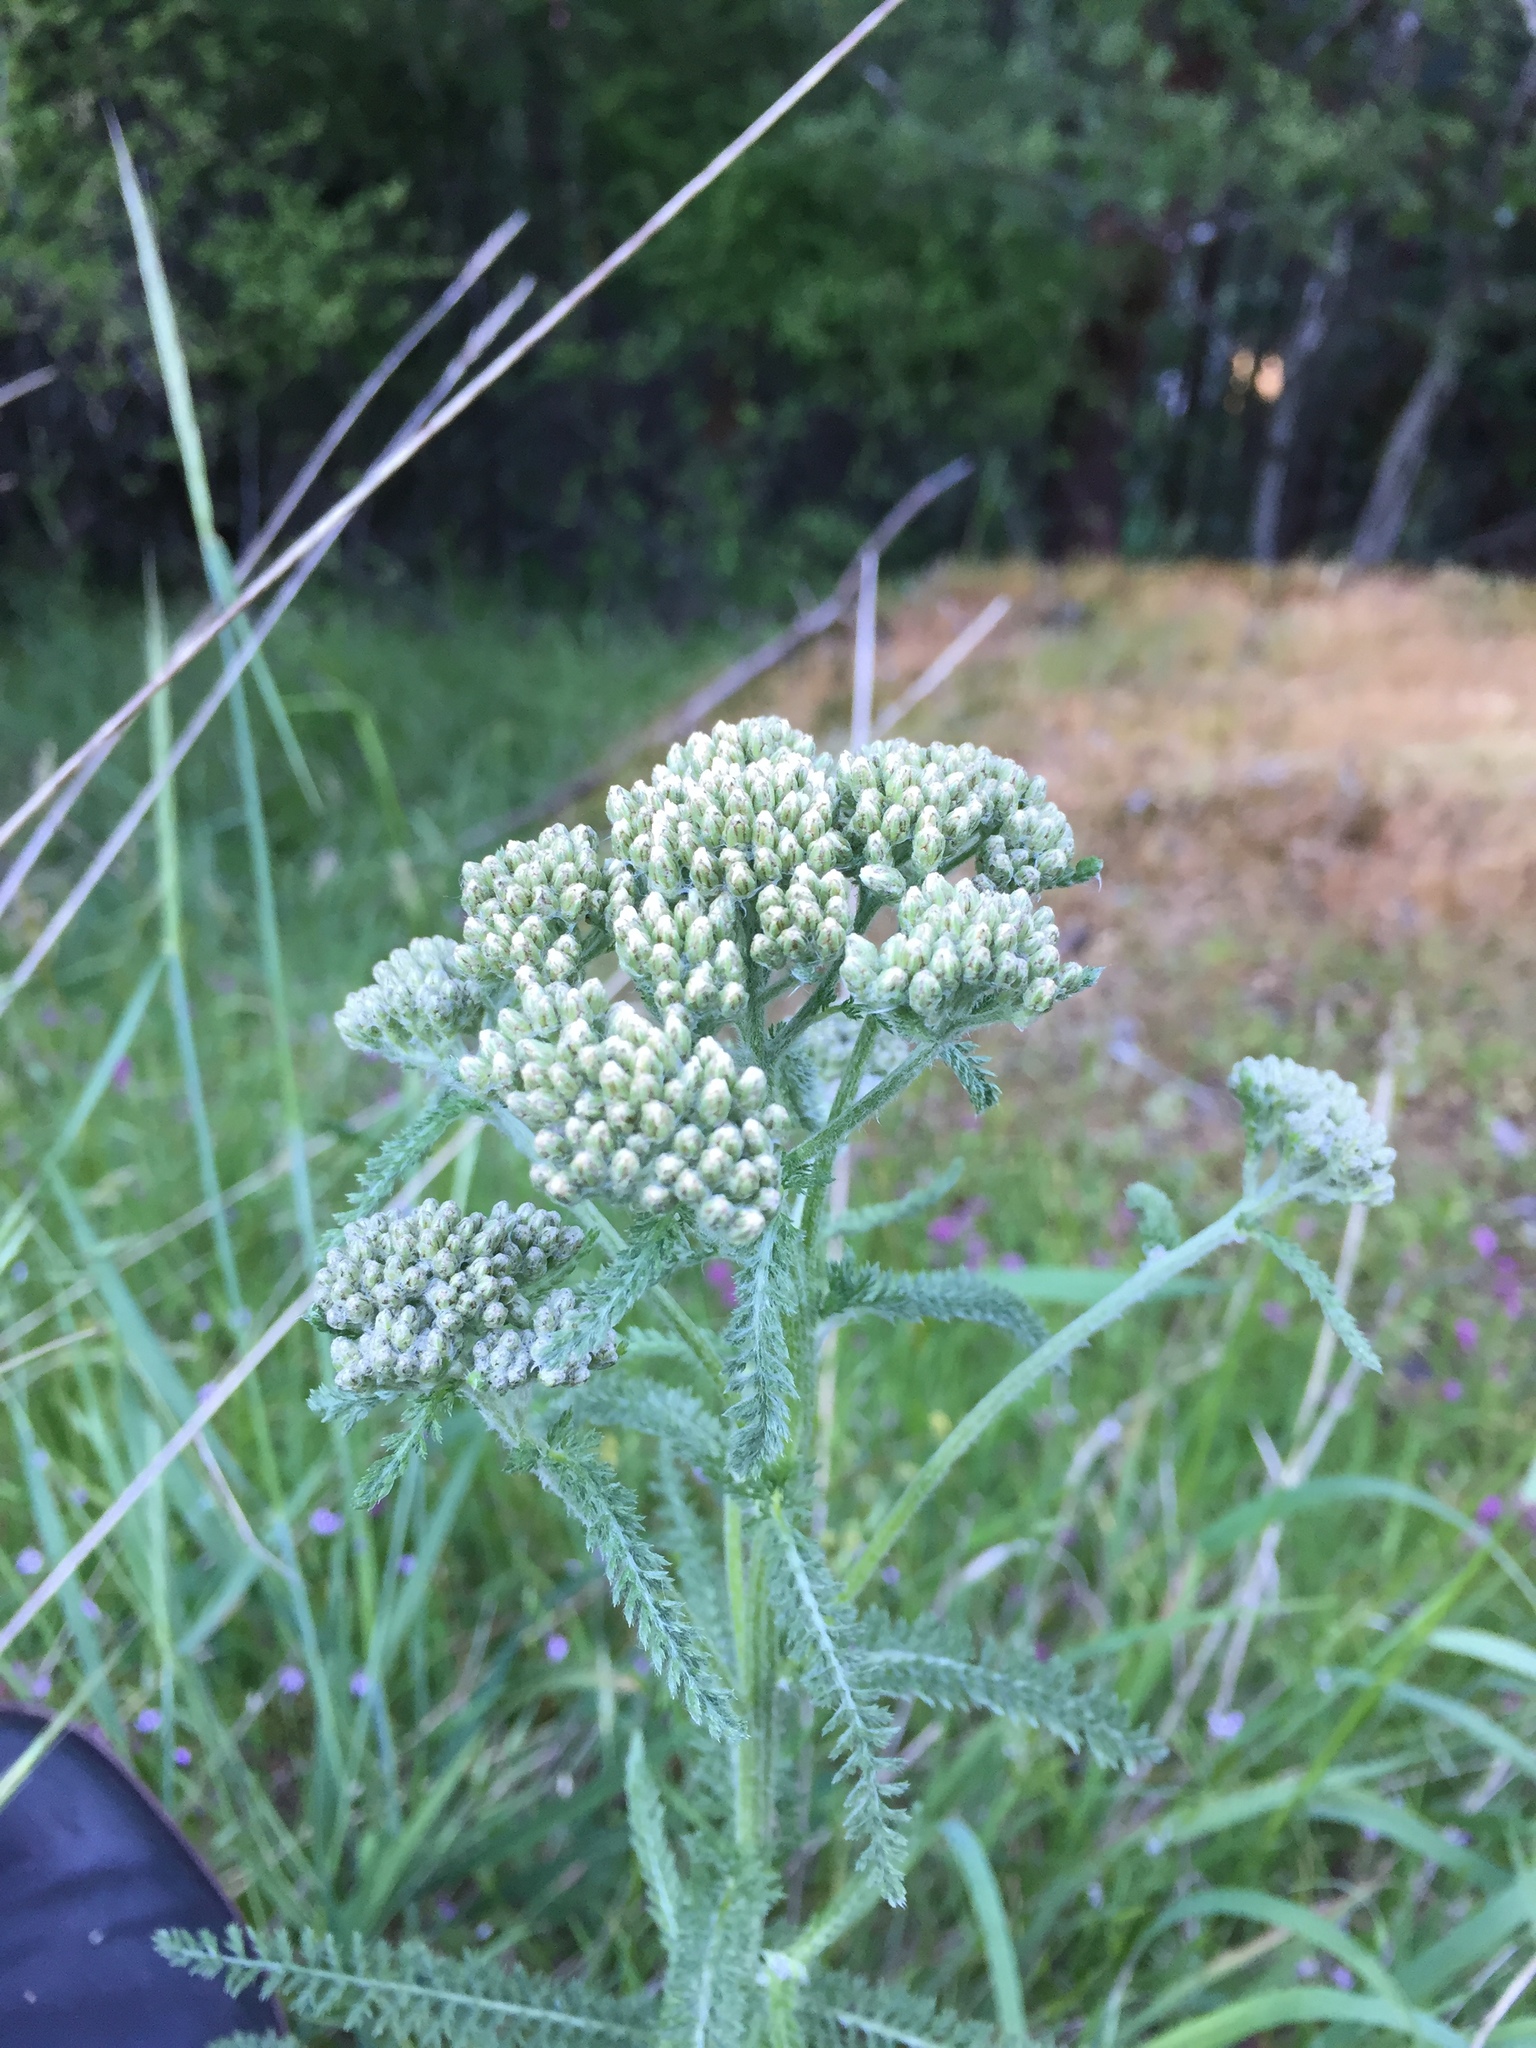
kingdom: Plantae
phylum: Tracheophyta
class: Magnoliopsida
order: Asterales
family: Asteraceae
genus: Achillea
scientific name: Achillea millefolium
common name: Yarrow
